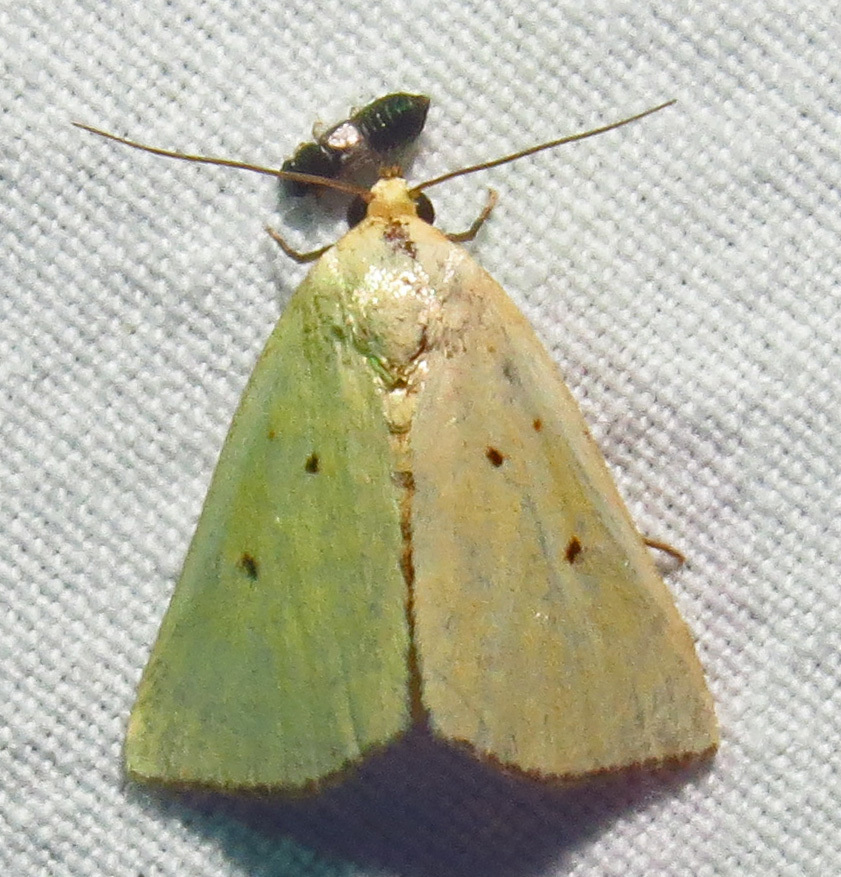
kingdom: Animalia
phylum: Arthropoda
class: Insecta
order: Lepidoptera
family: Noctuidae
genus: Marimatha
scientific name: Marimatha nigrofimbria
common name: Black-bordered lemon moth
